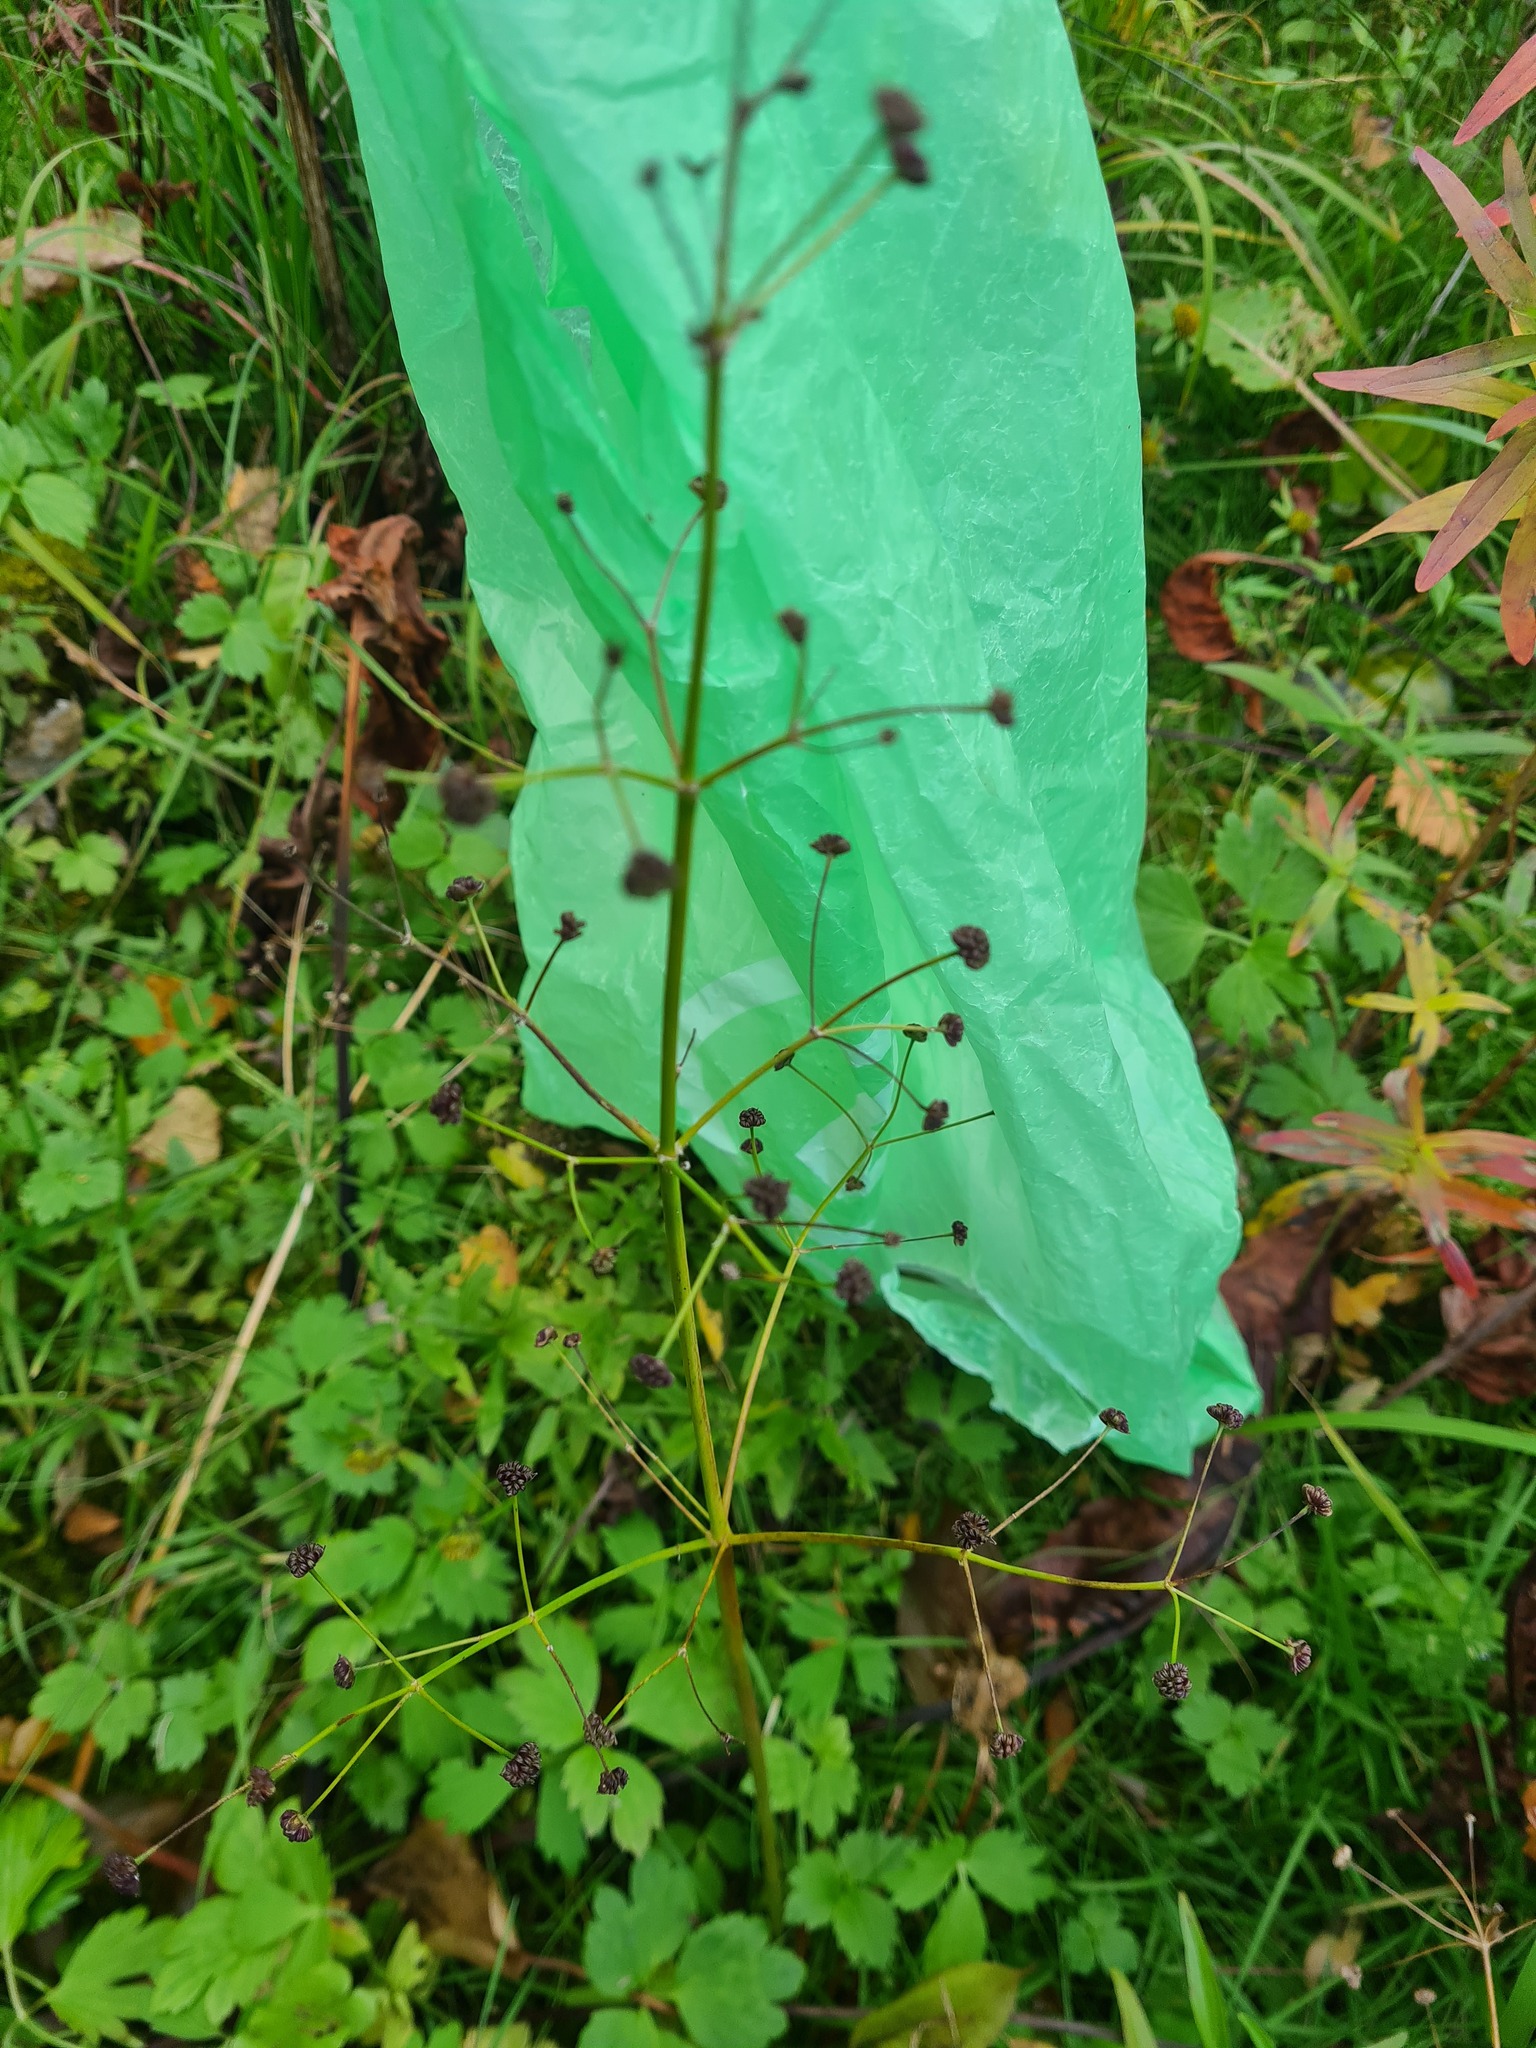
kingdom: Plantae
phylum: Tracheophyta
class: Liliopsida
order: Alismatales
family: Alismataceae
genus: Alisma
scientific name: Alisma plantago-aquatica
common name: Water-plantain
